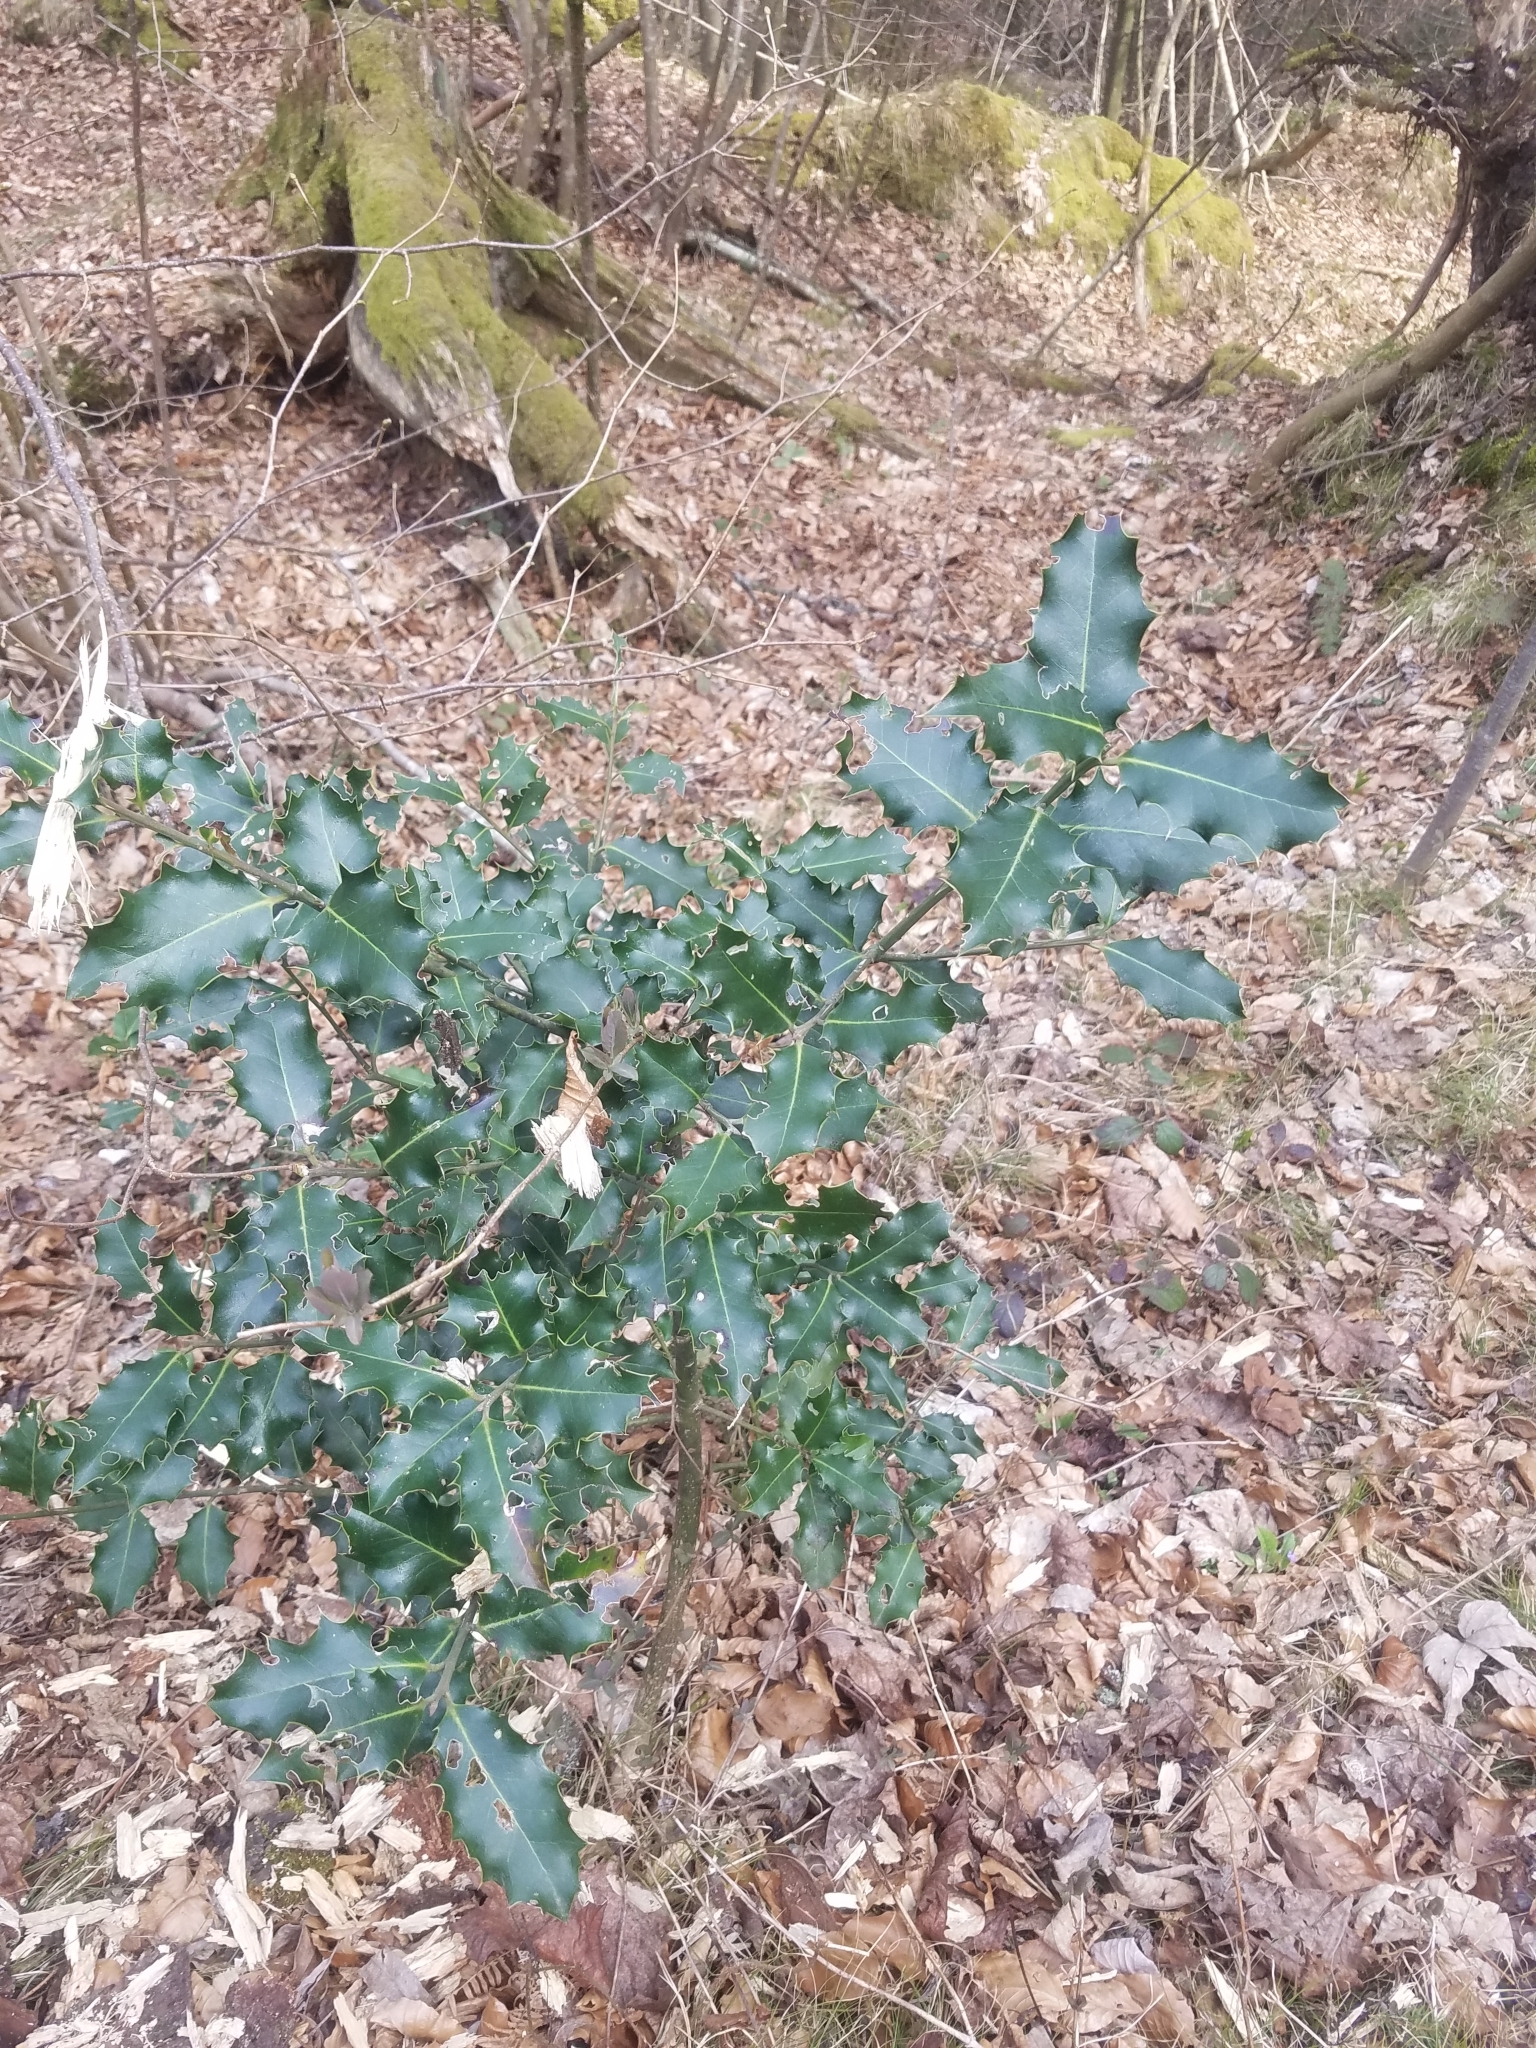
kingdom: Plantae
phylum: Tracheophyta
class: Magnoliopsida
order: Aquifoliales
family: Aquifoliaceae
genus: Ilex
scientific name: Ilex aquifolium
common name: English holly
